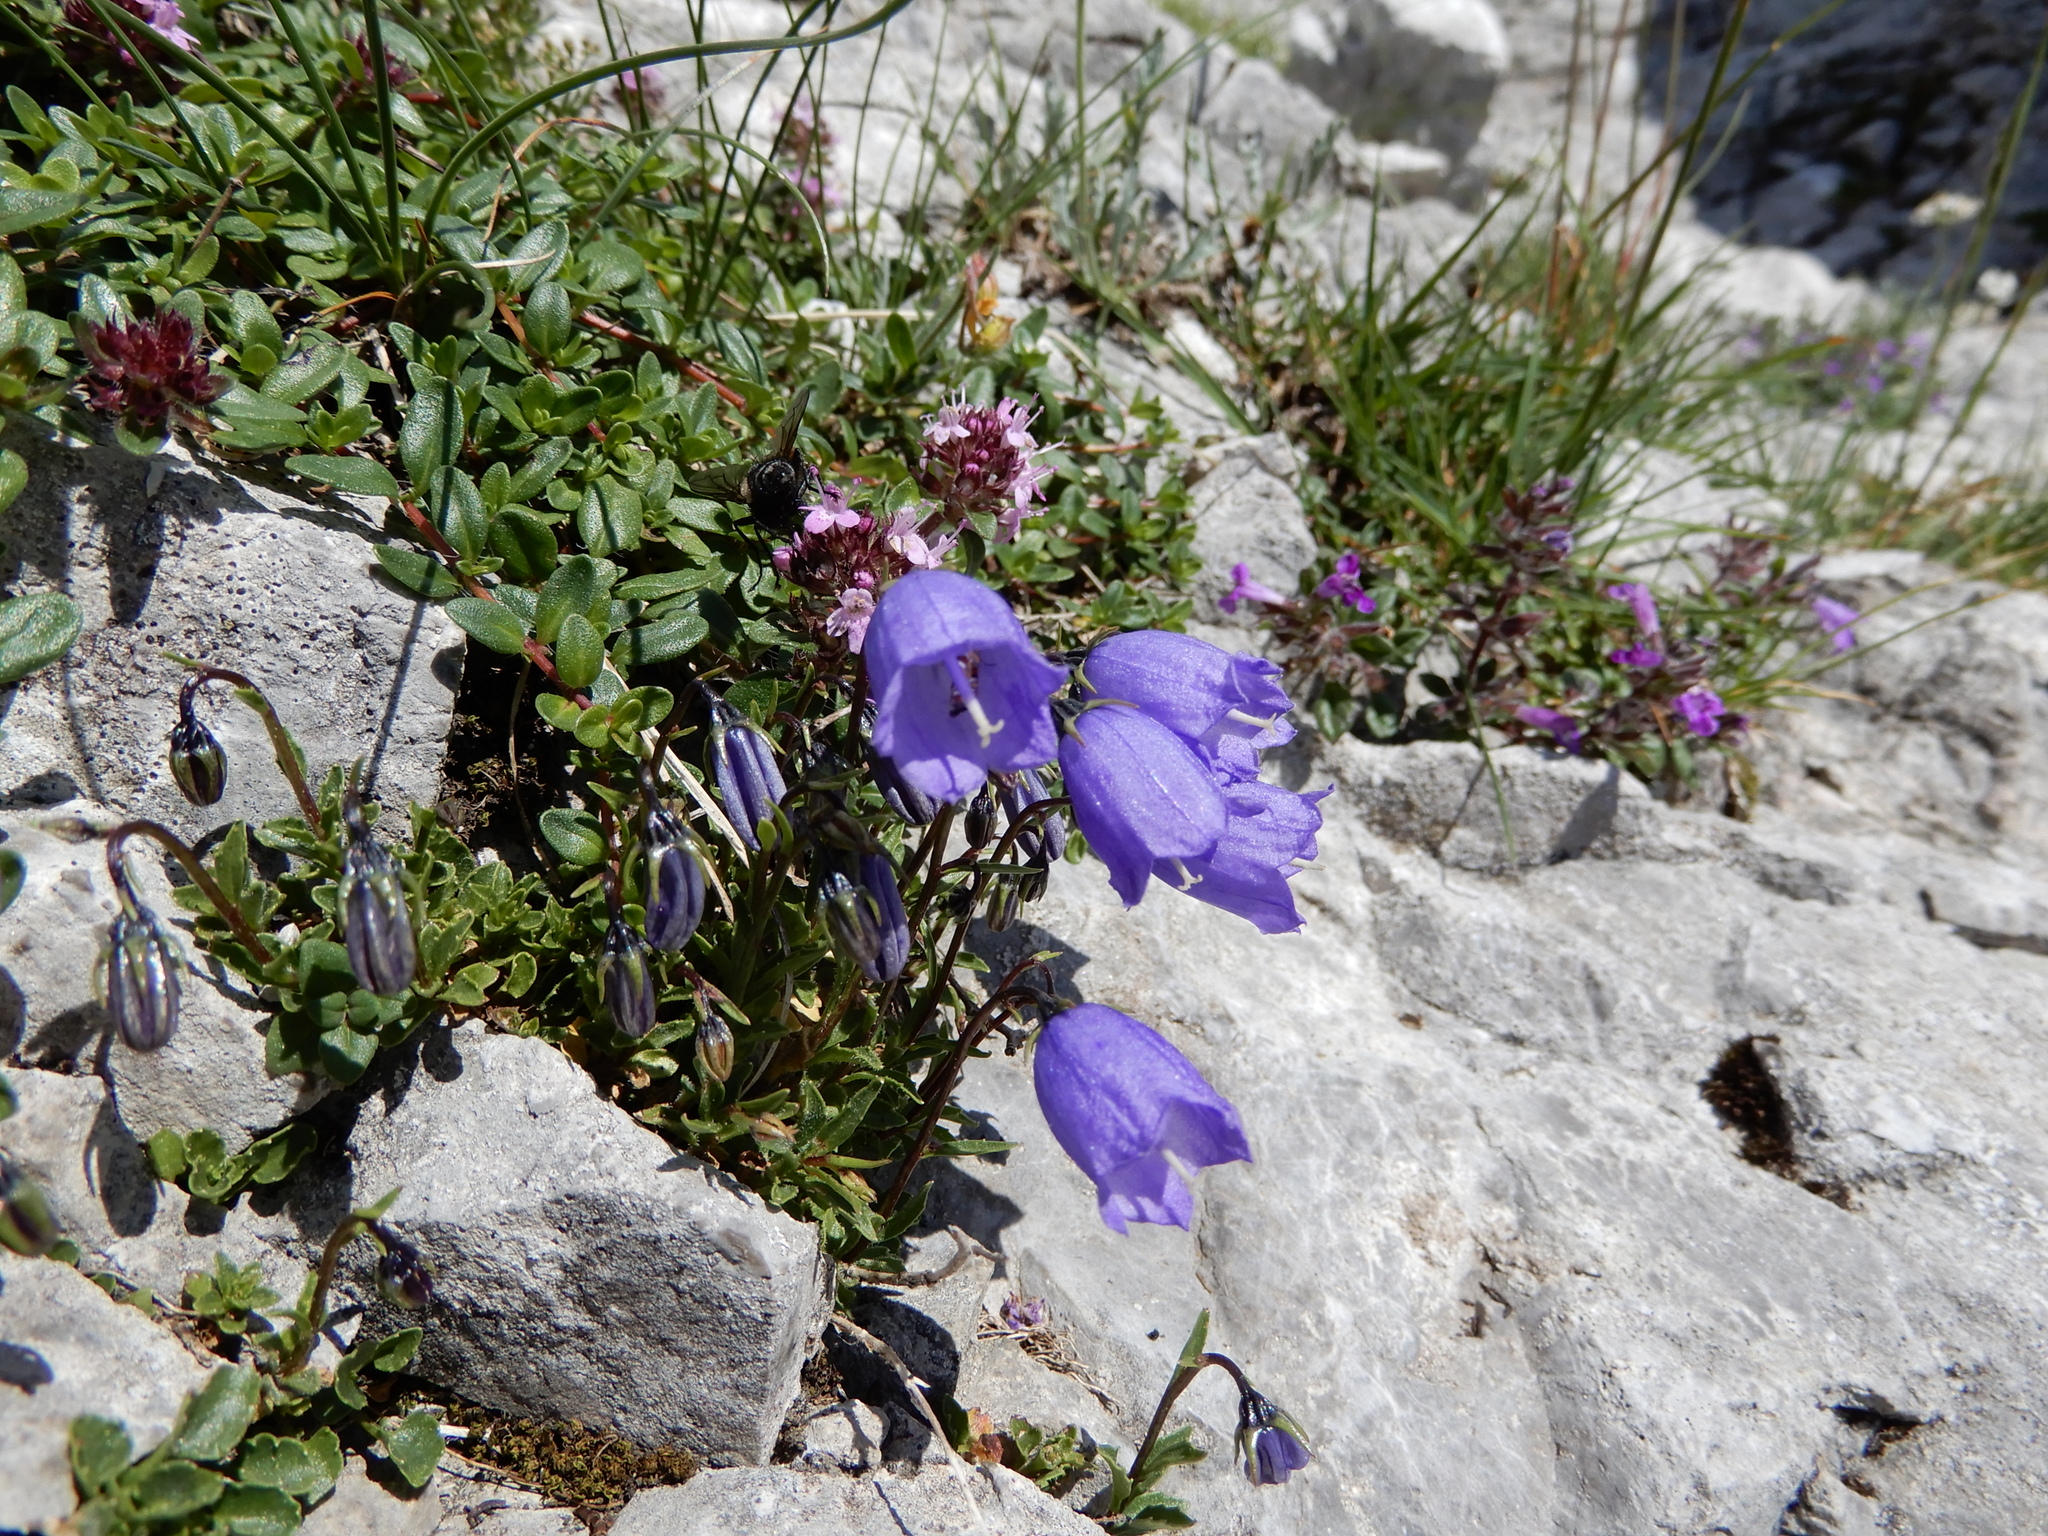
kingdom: Plantae
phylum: Tracheophyta
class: Magnoliopsida
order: Asterales
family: Campanulaceae
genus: Campanula
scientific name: Campanula cochleariifolia
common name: Fairies'-thimbles
